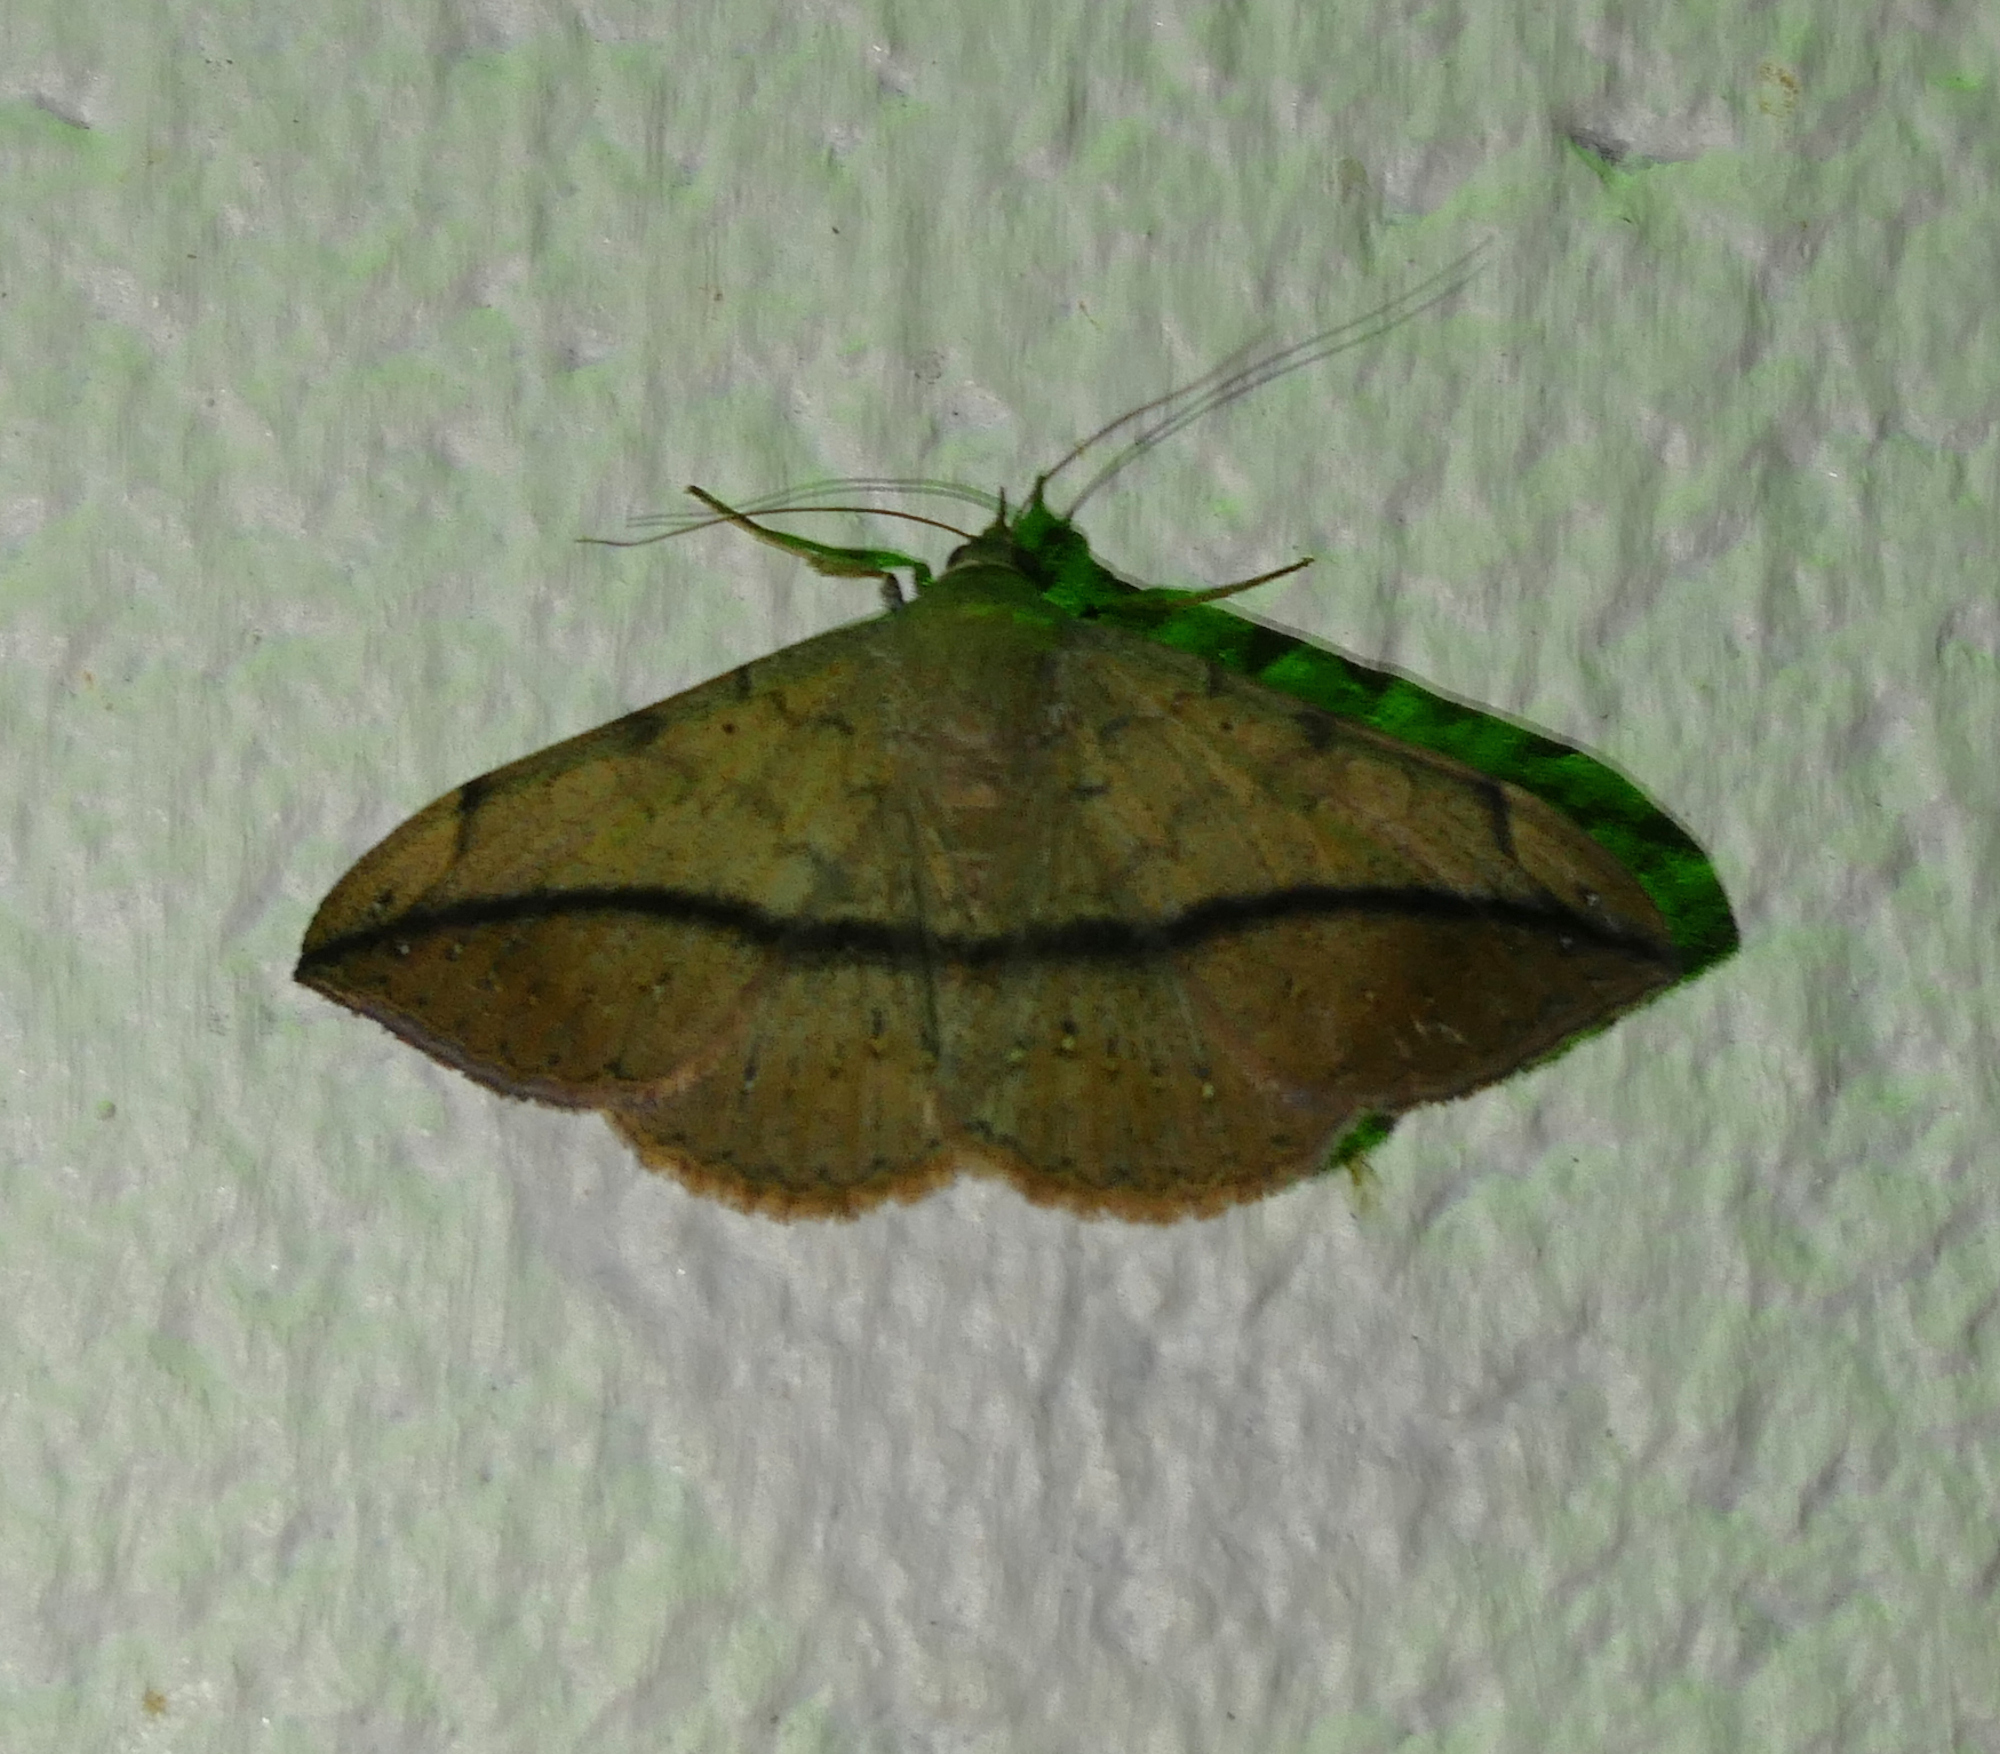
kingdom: Animalia
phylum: Arthropoda
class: Insecta
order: Lepidoptera
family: Erebidae
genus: Anticarsia
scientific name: Anticarsia gemmatalis
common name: Cutworm moth
